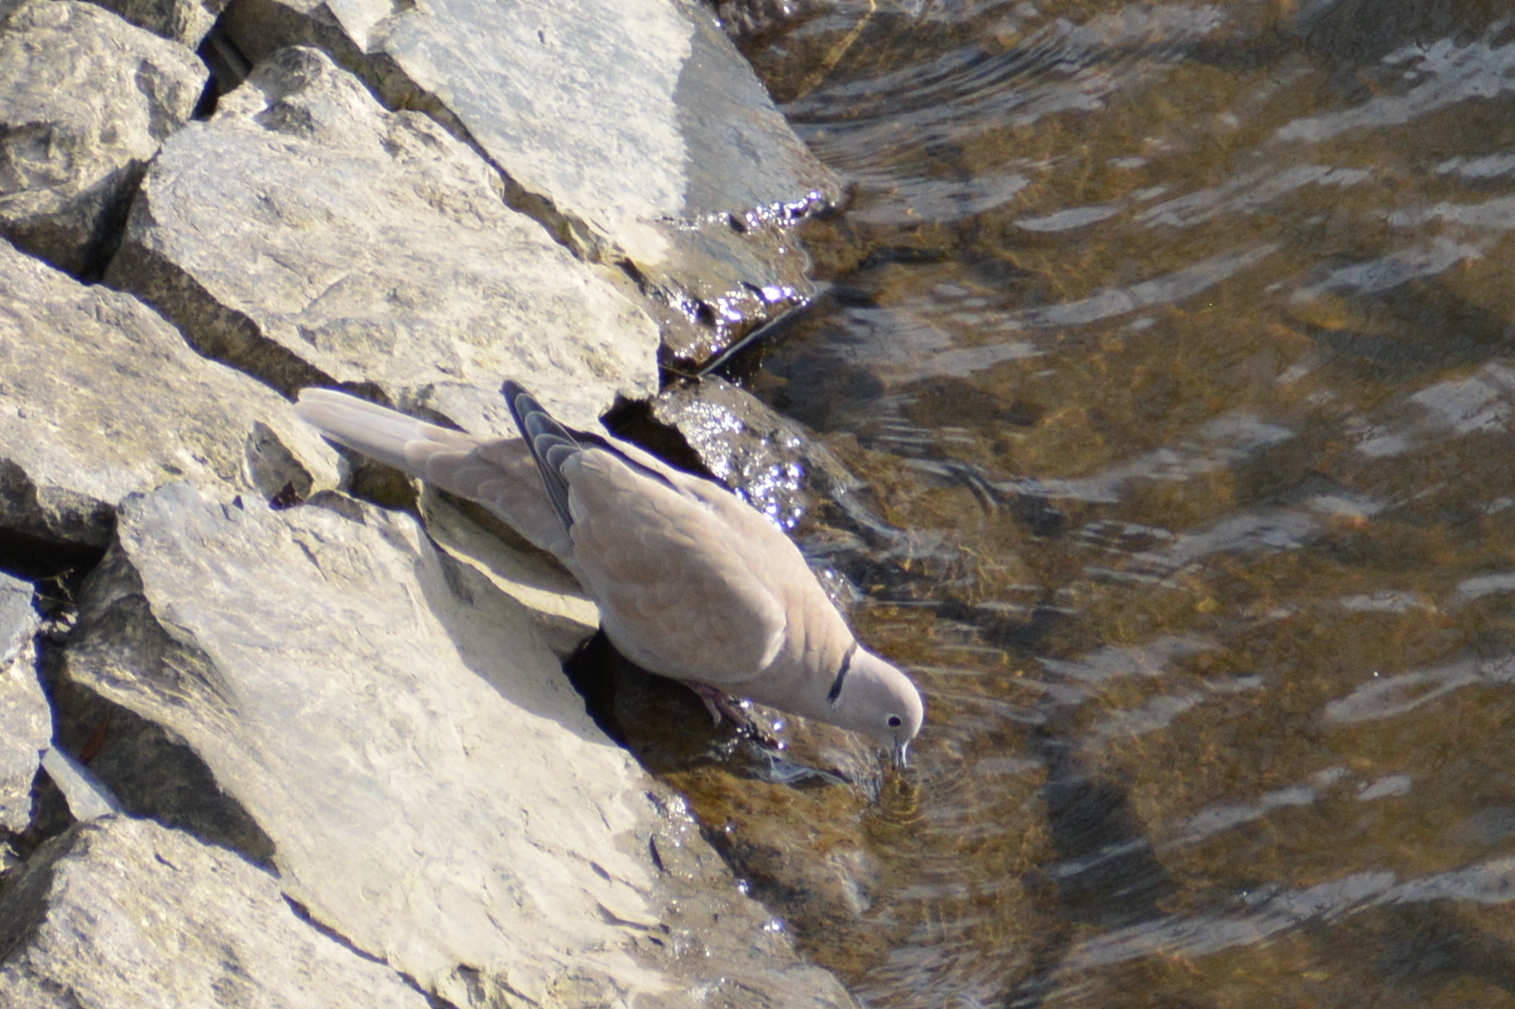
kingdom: Animalia
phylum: Chordata
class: Aves
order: Columbiformes
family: Columbidae
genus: Streptopelia
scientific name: Streptopelia decaocto
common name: Eurasian collared dove
